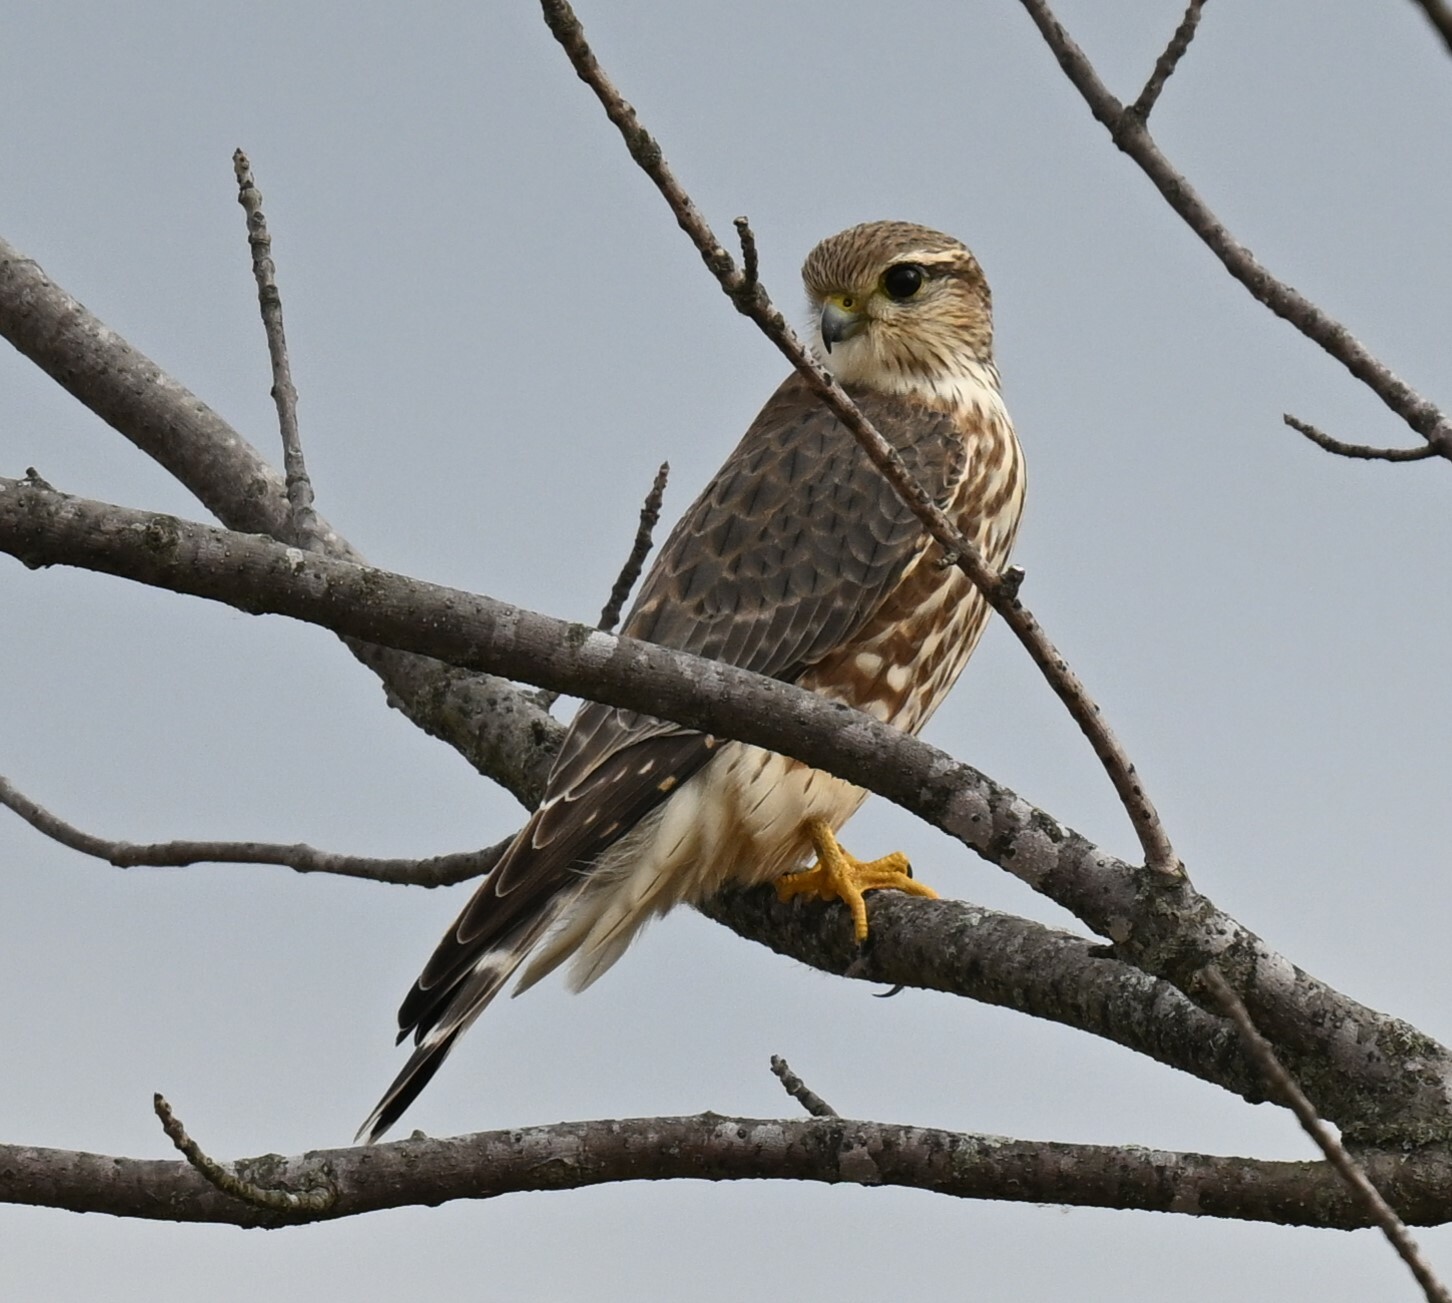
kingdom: Animalia
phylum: Chordata
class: Aves
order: Falconiformes
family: Falconidae
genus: Falco
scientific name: Falco columbarius
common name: Merlin
